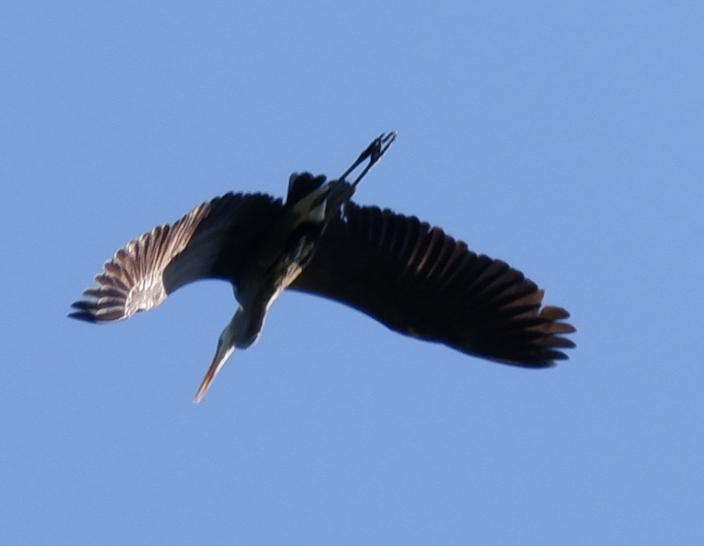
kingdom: Animalia
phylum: Chordata
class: Aves
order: Pelecaniformes
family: Ardeidae
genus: Ardea
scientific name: Ardea herodias
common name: Great blue heron
